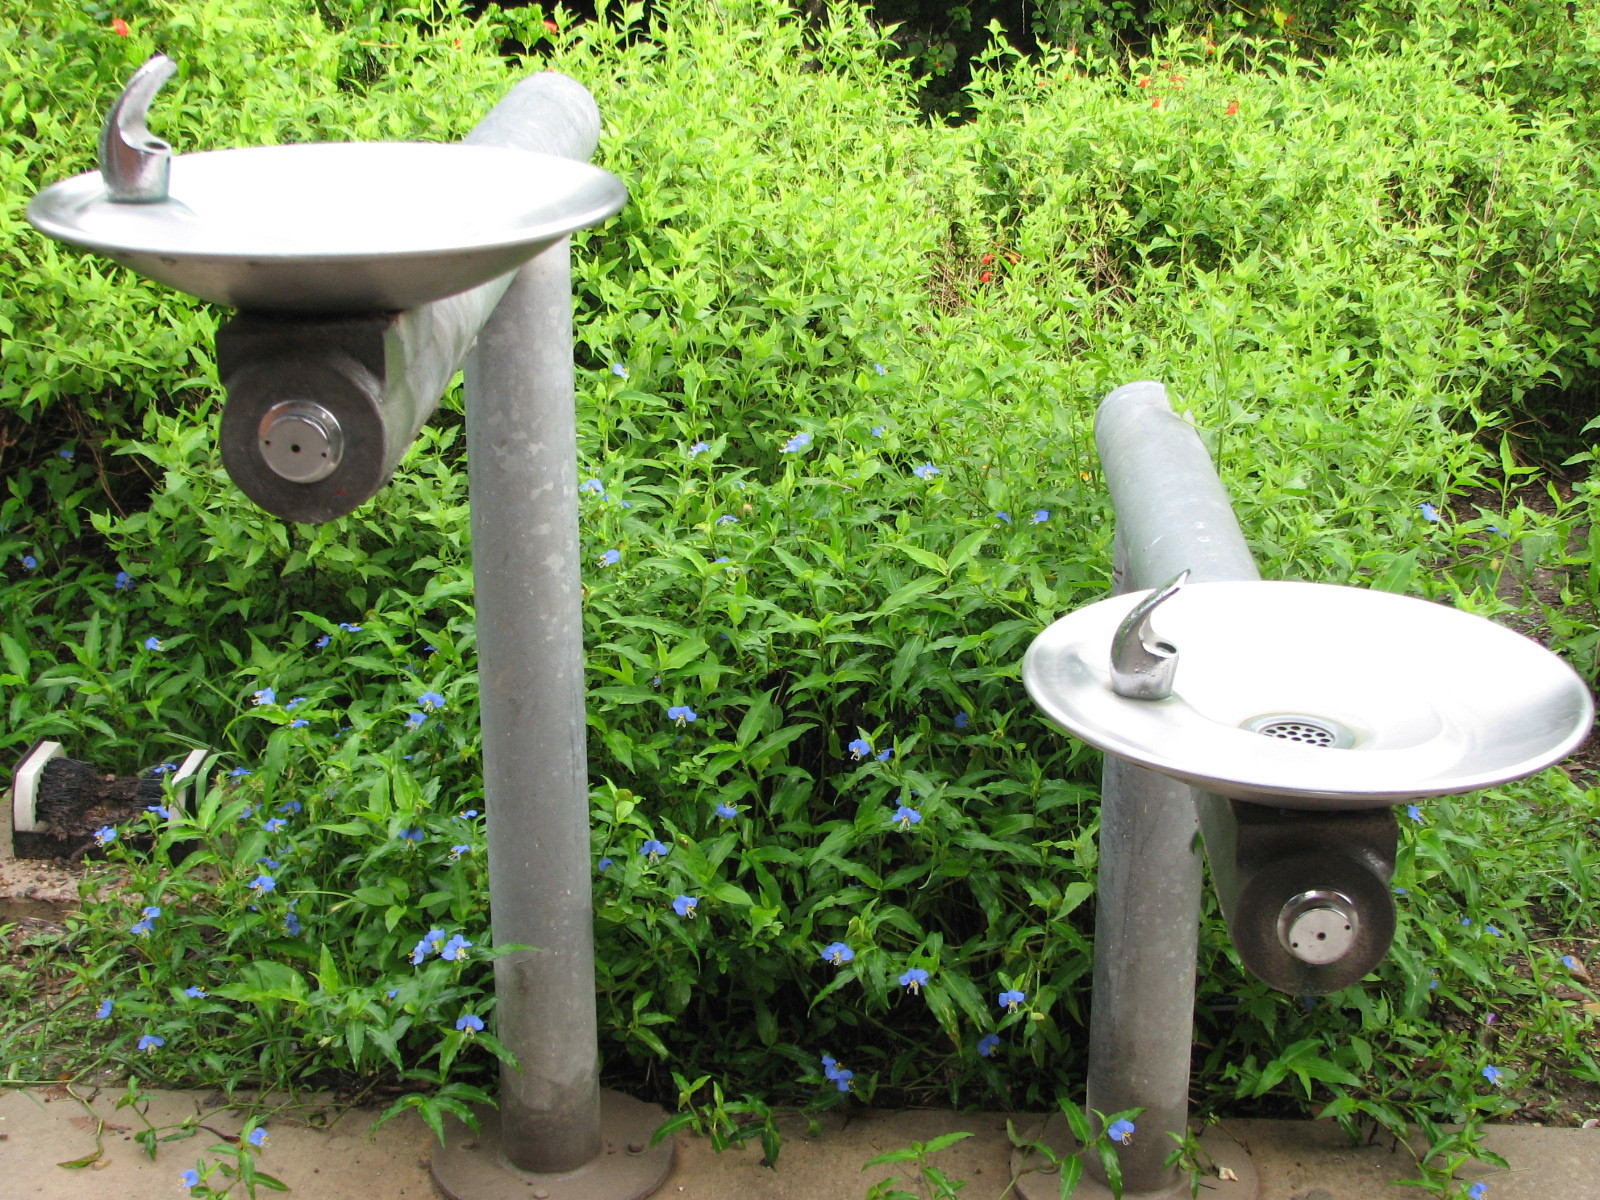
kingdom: Plantae
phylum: Tracheophyta
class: Liliopsida
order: Commelinales
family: Commelinaceae
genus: Commelina
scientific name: Commelina erecta
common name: Blousel blommetjie
